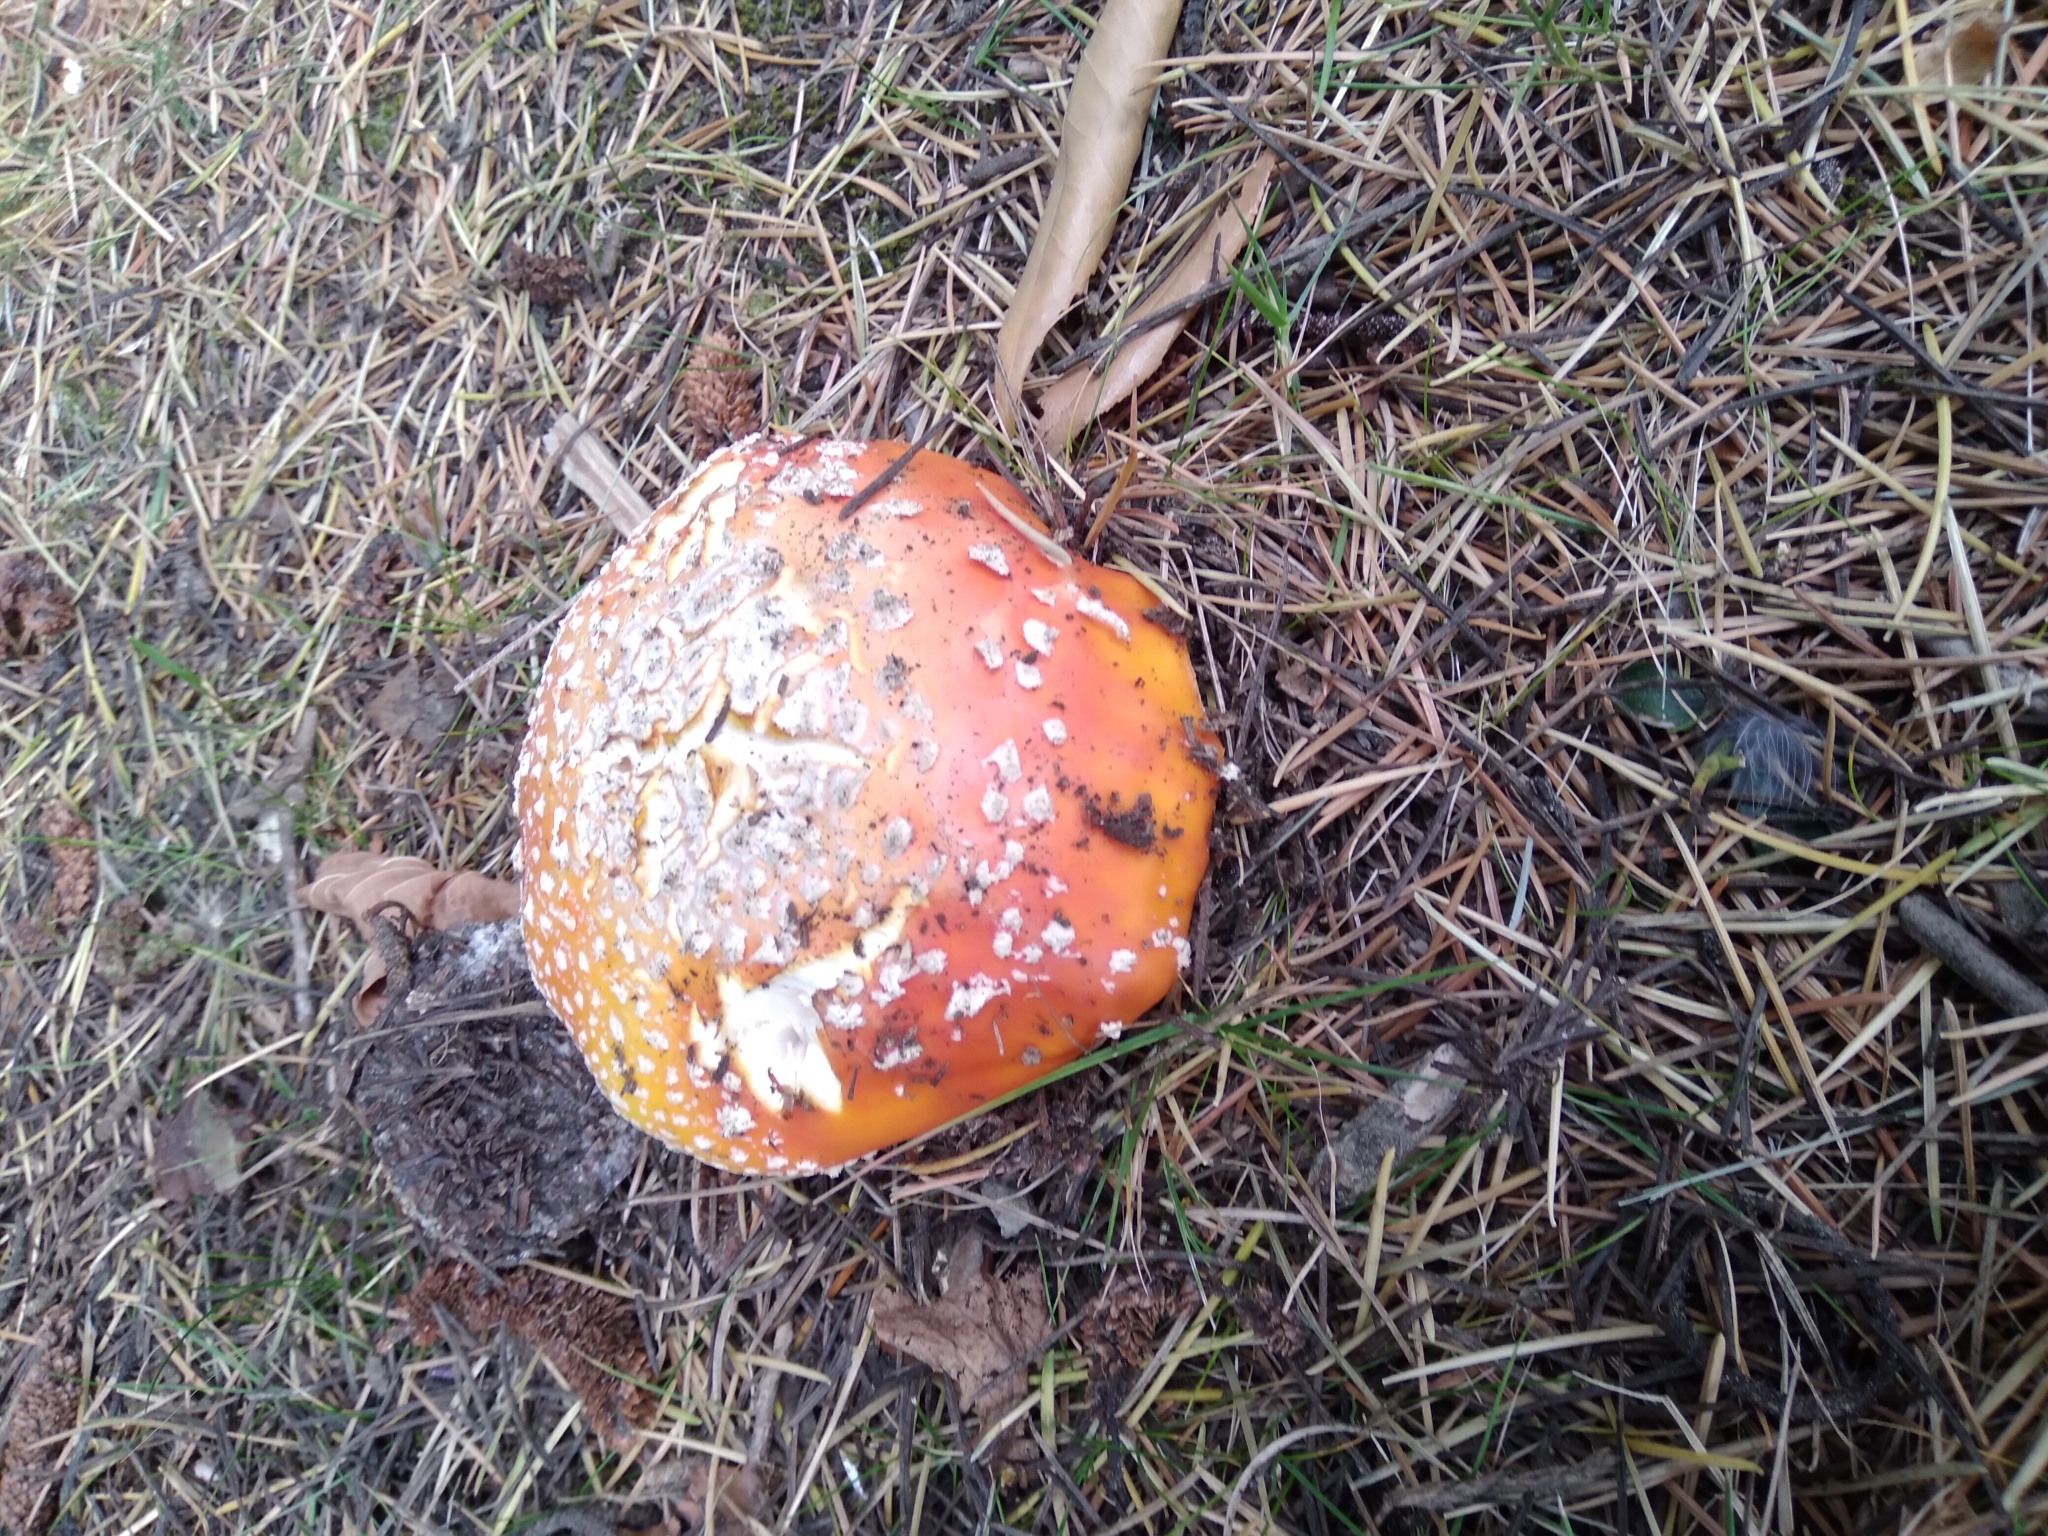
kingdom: Fungi
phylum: Basidiomycota
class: Agaricomycetes
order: Agaricales
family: Amanitaceae
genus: Amanita
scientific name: Amanita muscaria
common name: Fly agaric
